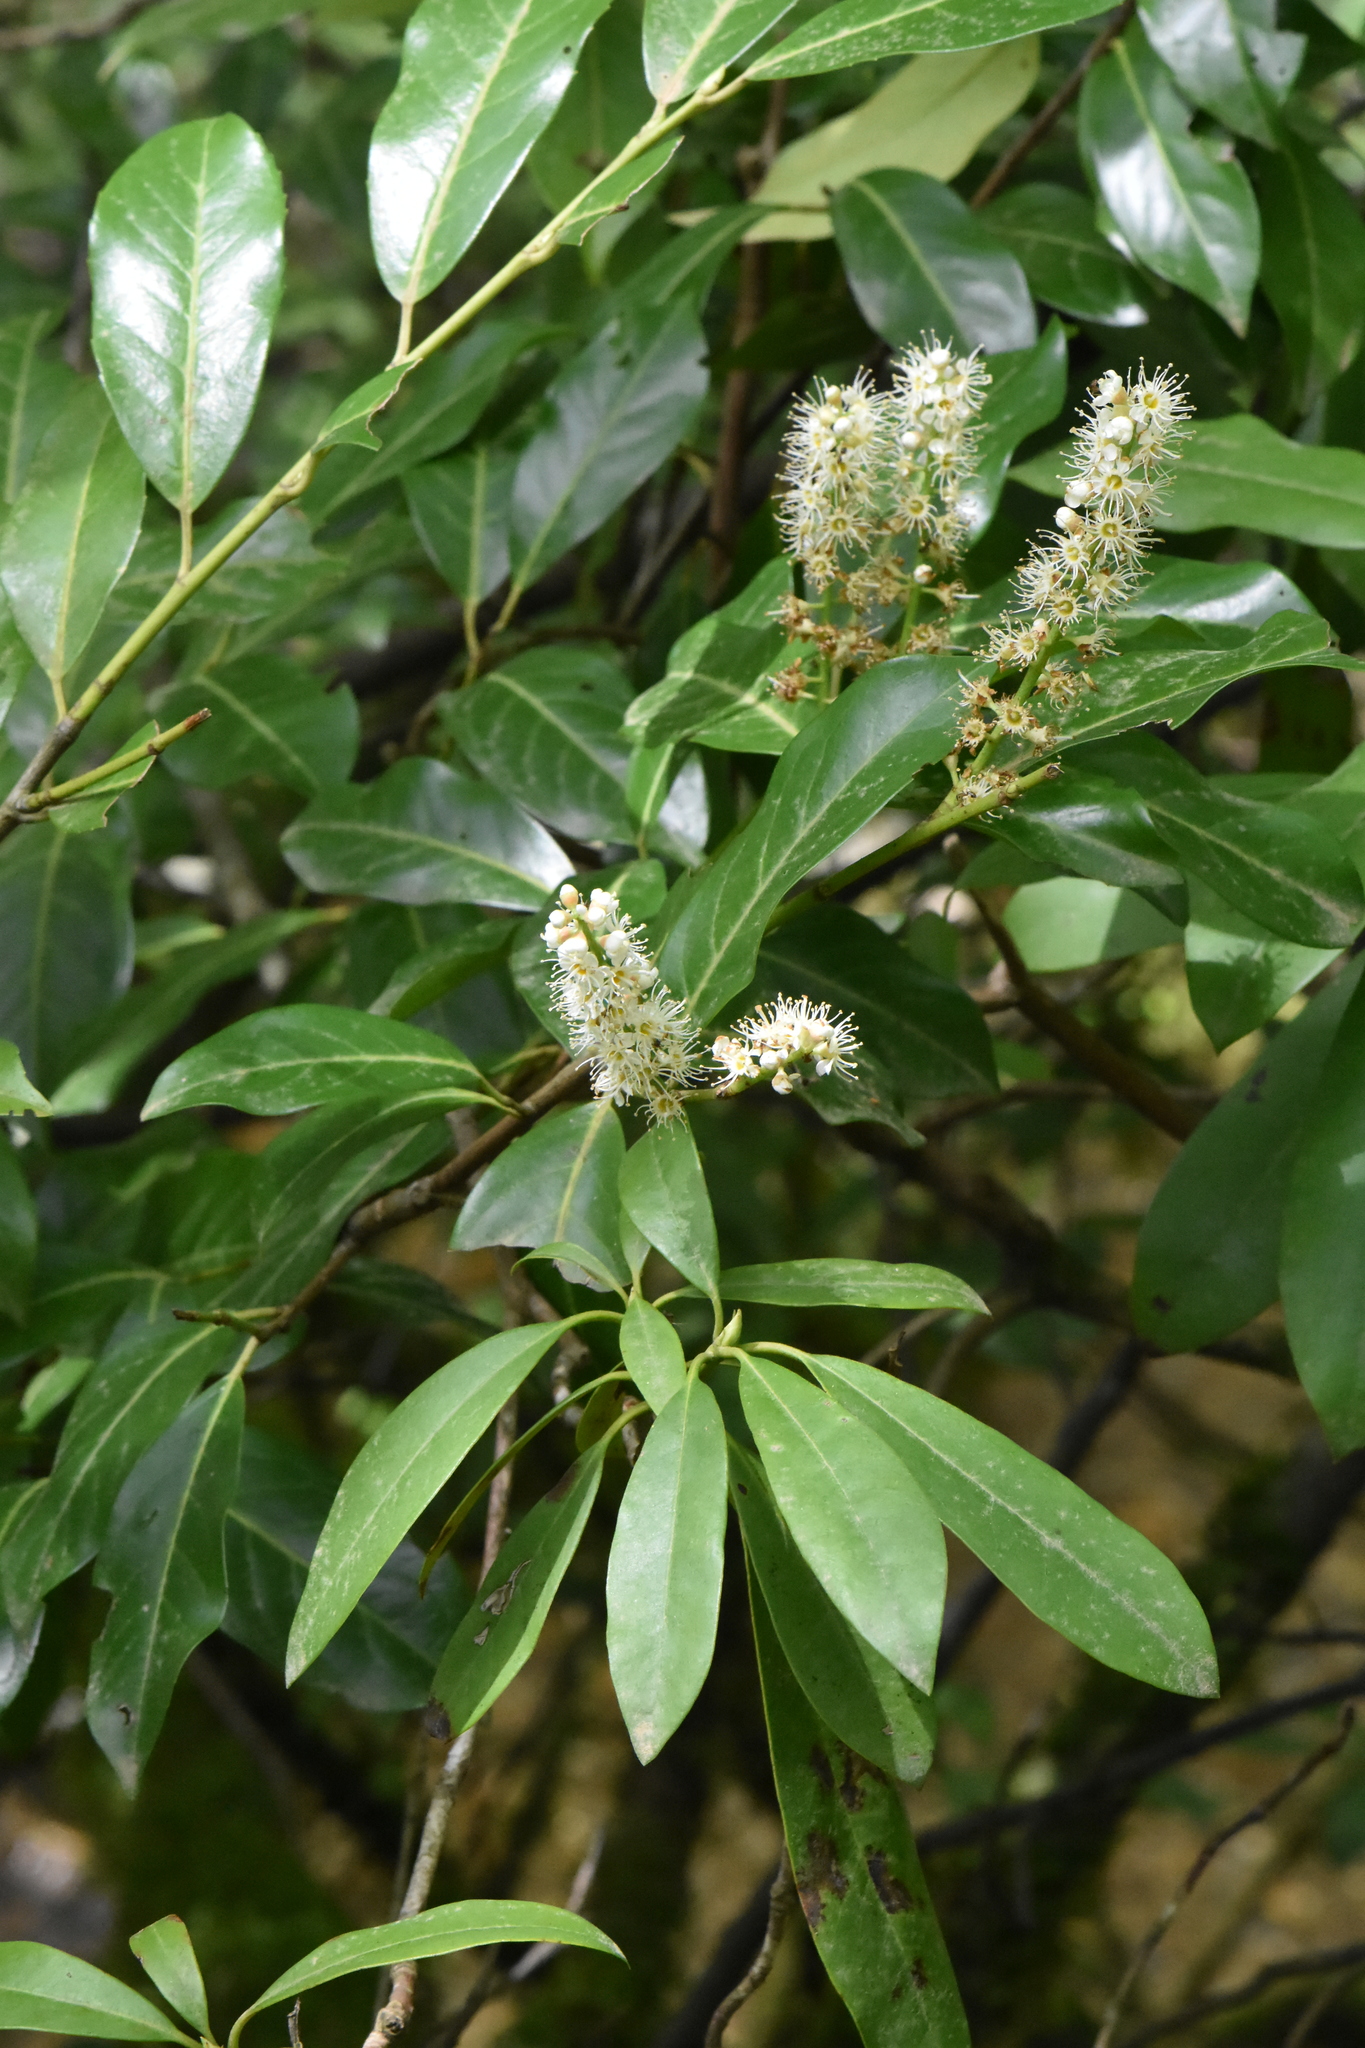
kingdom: Plantae
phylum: Tracheophyta
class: Magnoliopsida
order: Rosales
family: Rosaceae
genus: Prunus
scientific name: Prunus laurocerasus
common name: Cherry laurel
